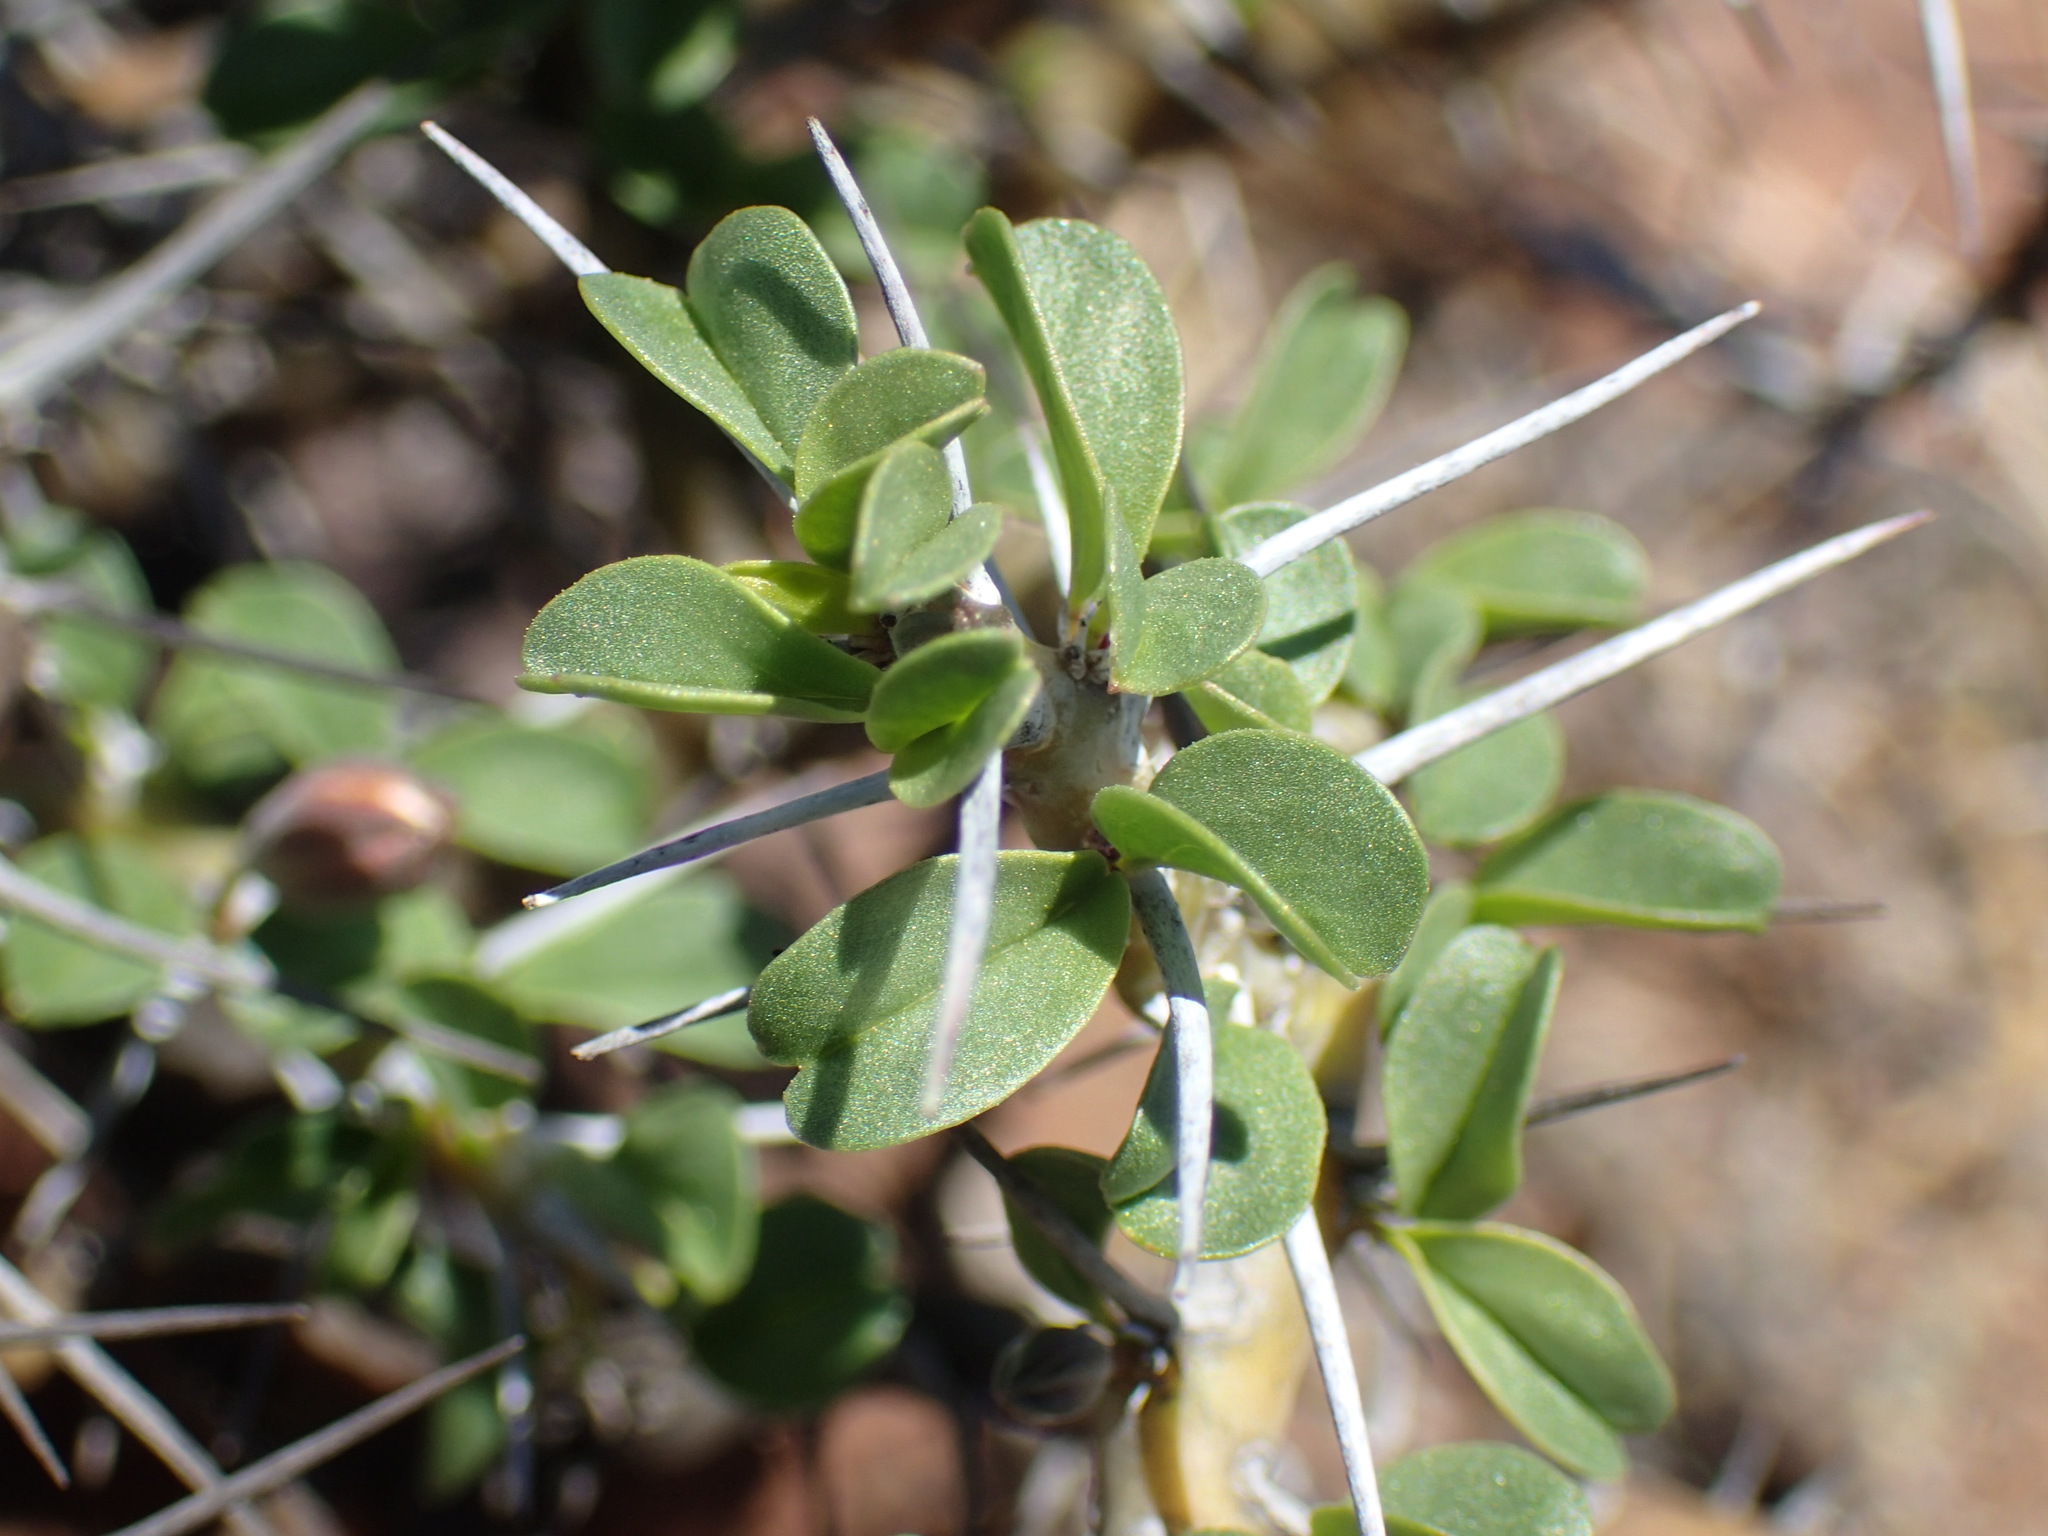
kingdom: Plantae
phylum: Tracheophyta
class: Magnoliopsida
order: Geraniales
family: Geraniaceae
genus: Monsonia
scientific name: Monsonia camdeboensis
